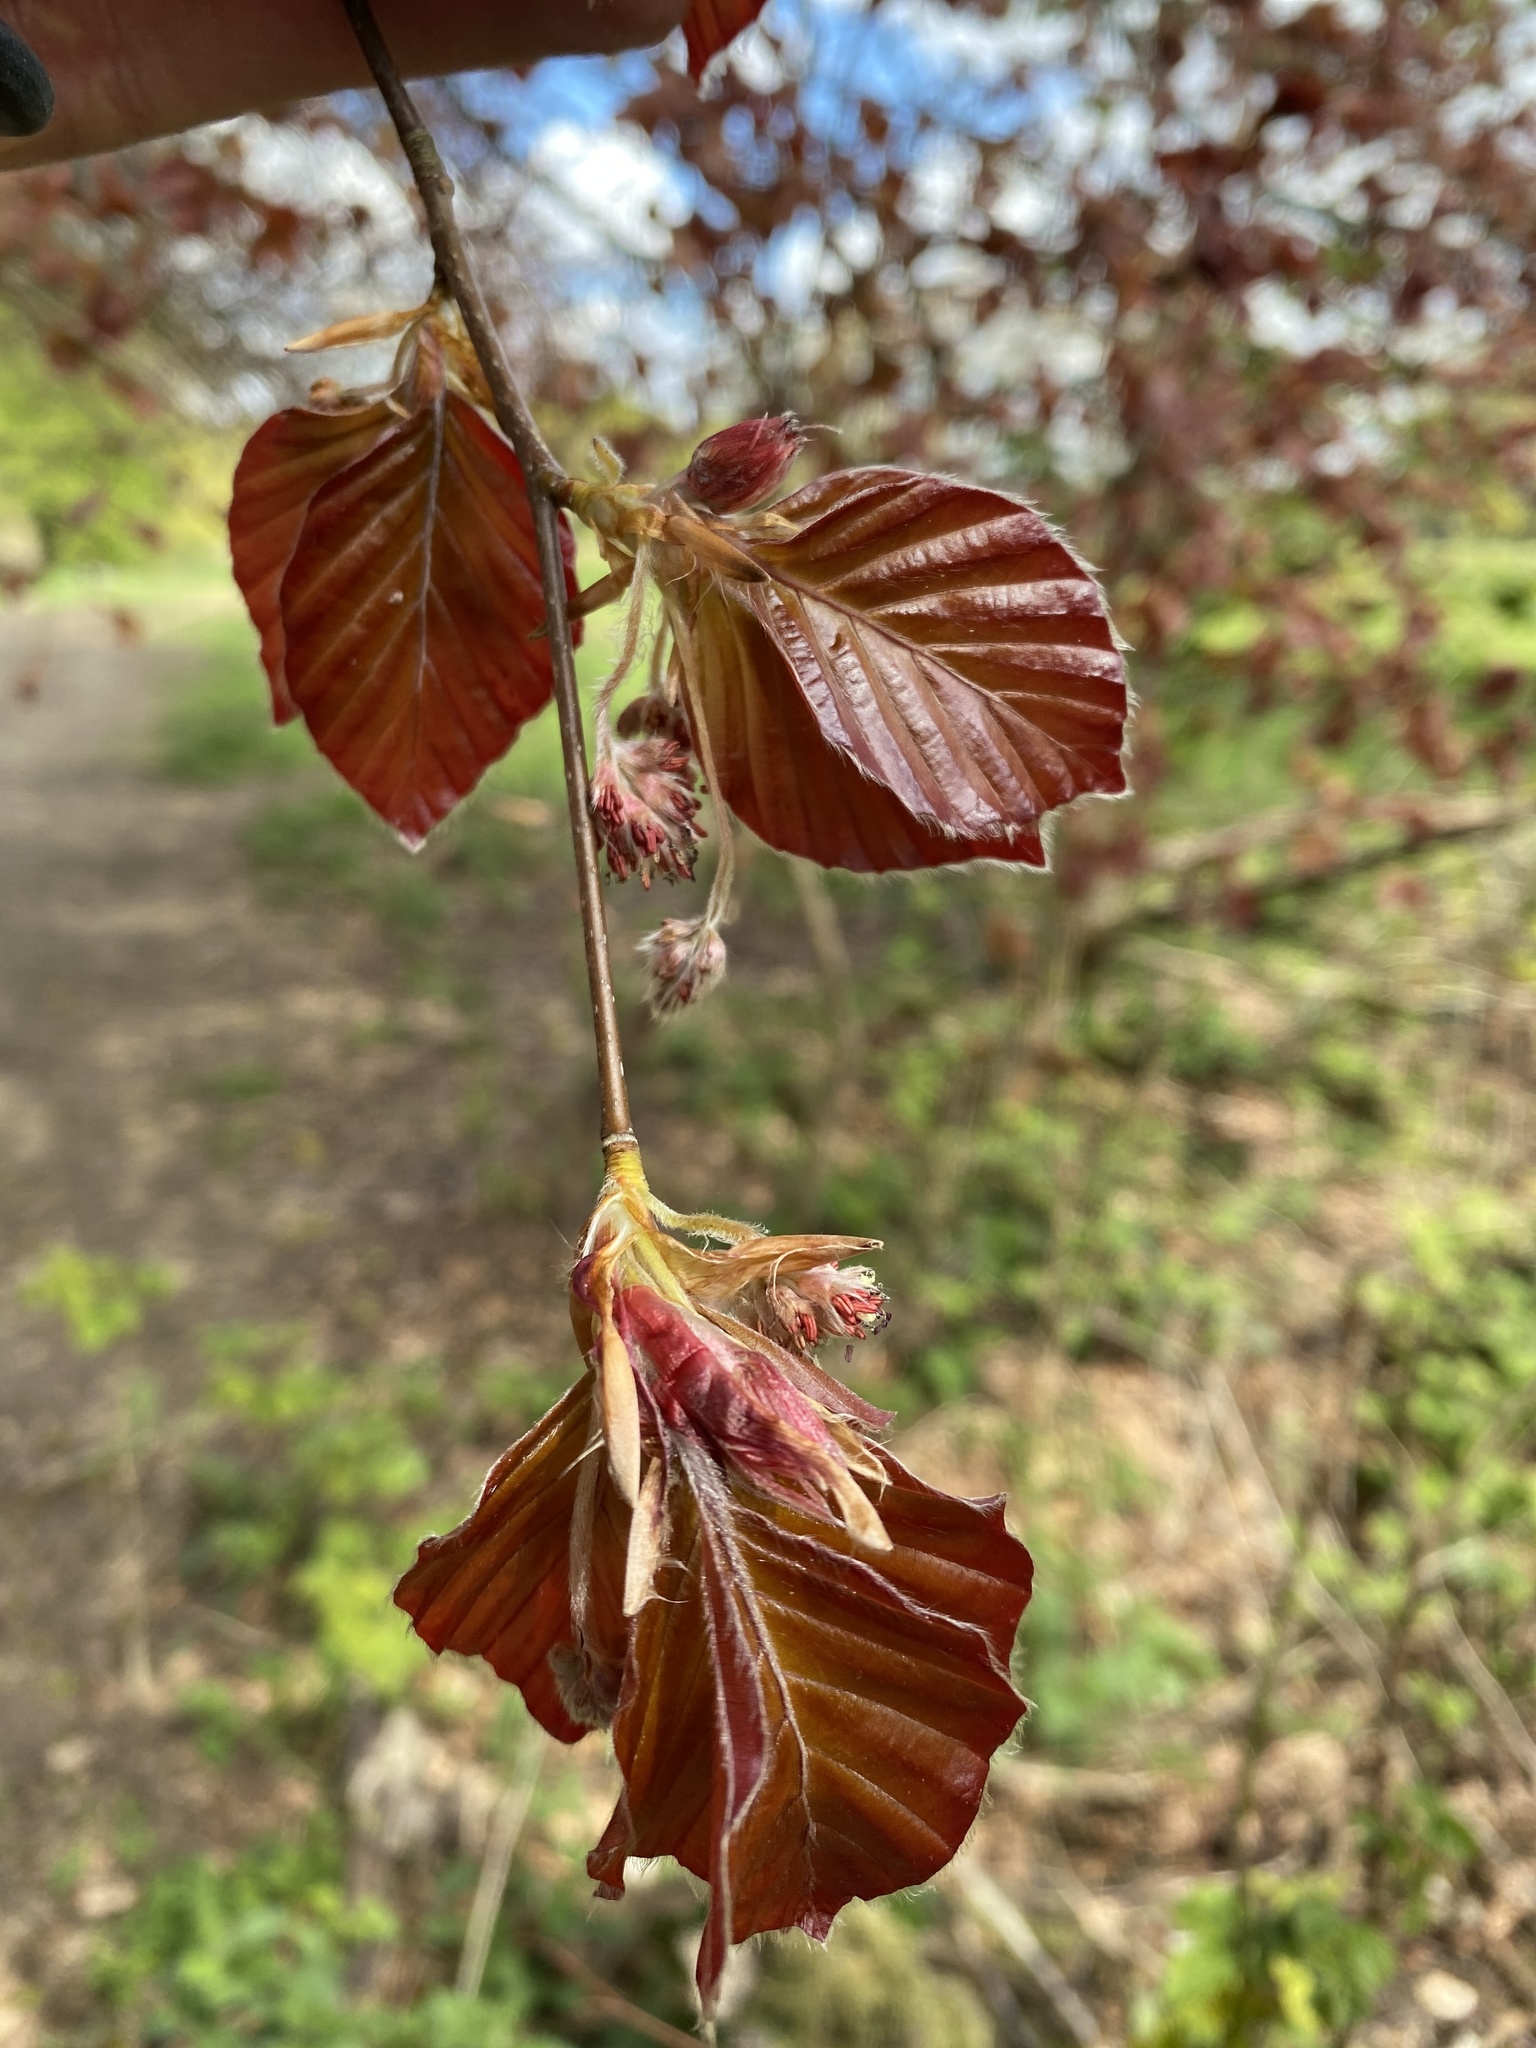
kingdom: Plantae
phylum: Tracheophyta
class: Magnoliopsida
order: Fagales
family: Fagaceae
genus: Fagus
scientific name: Fagus sylvatica
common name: Beech
